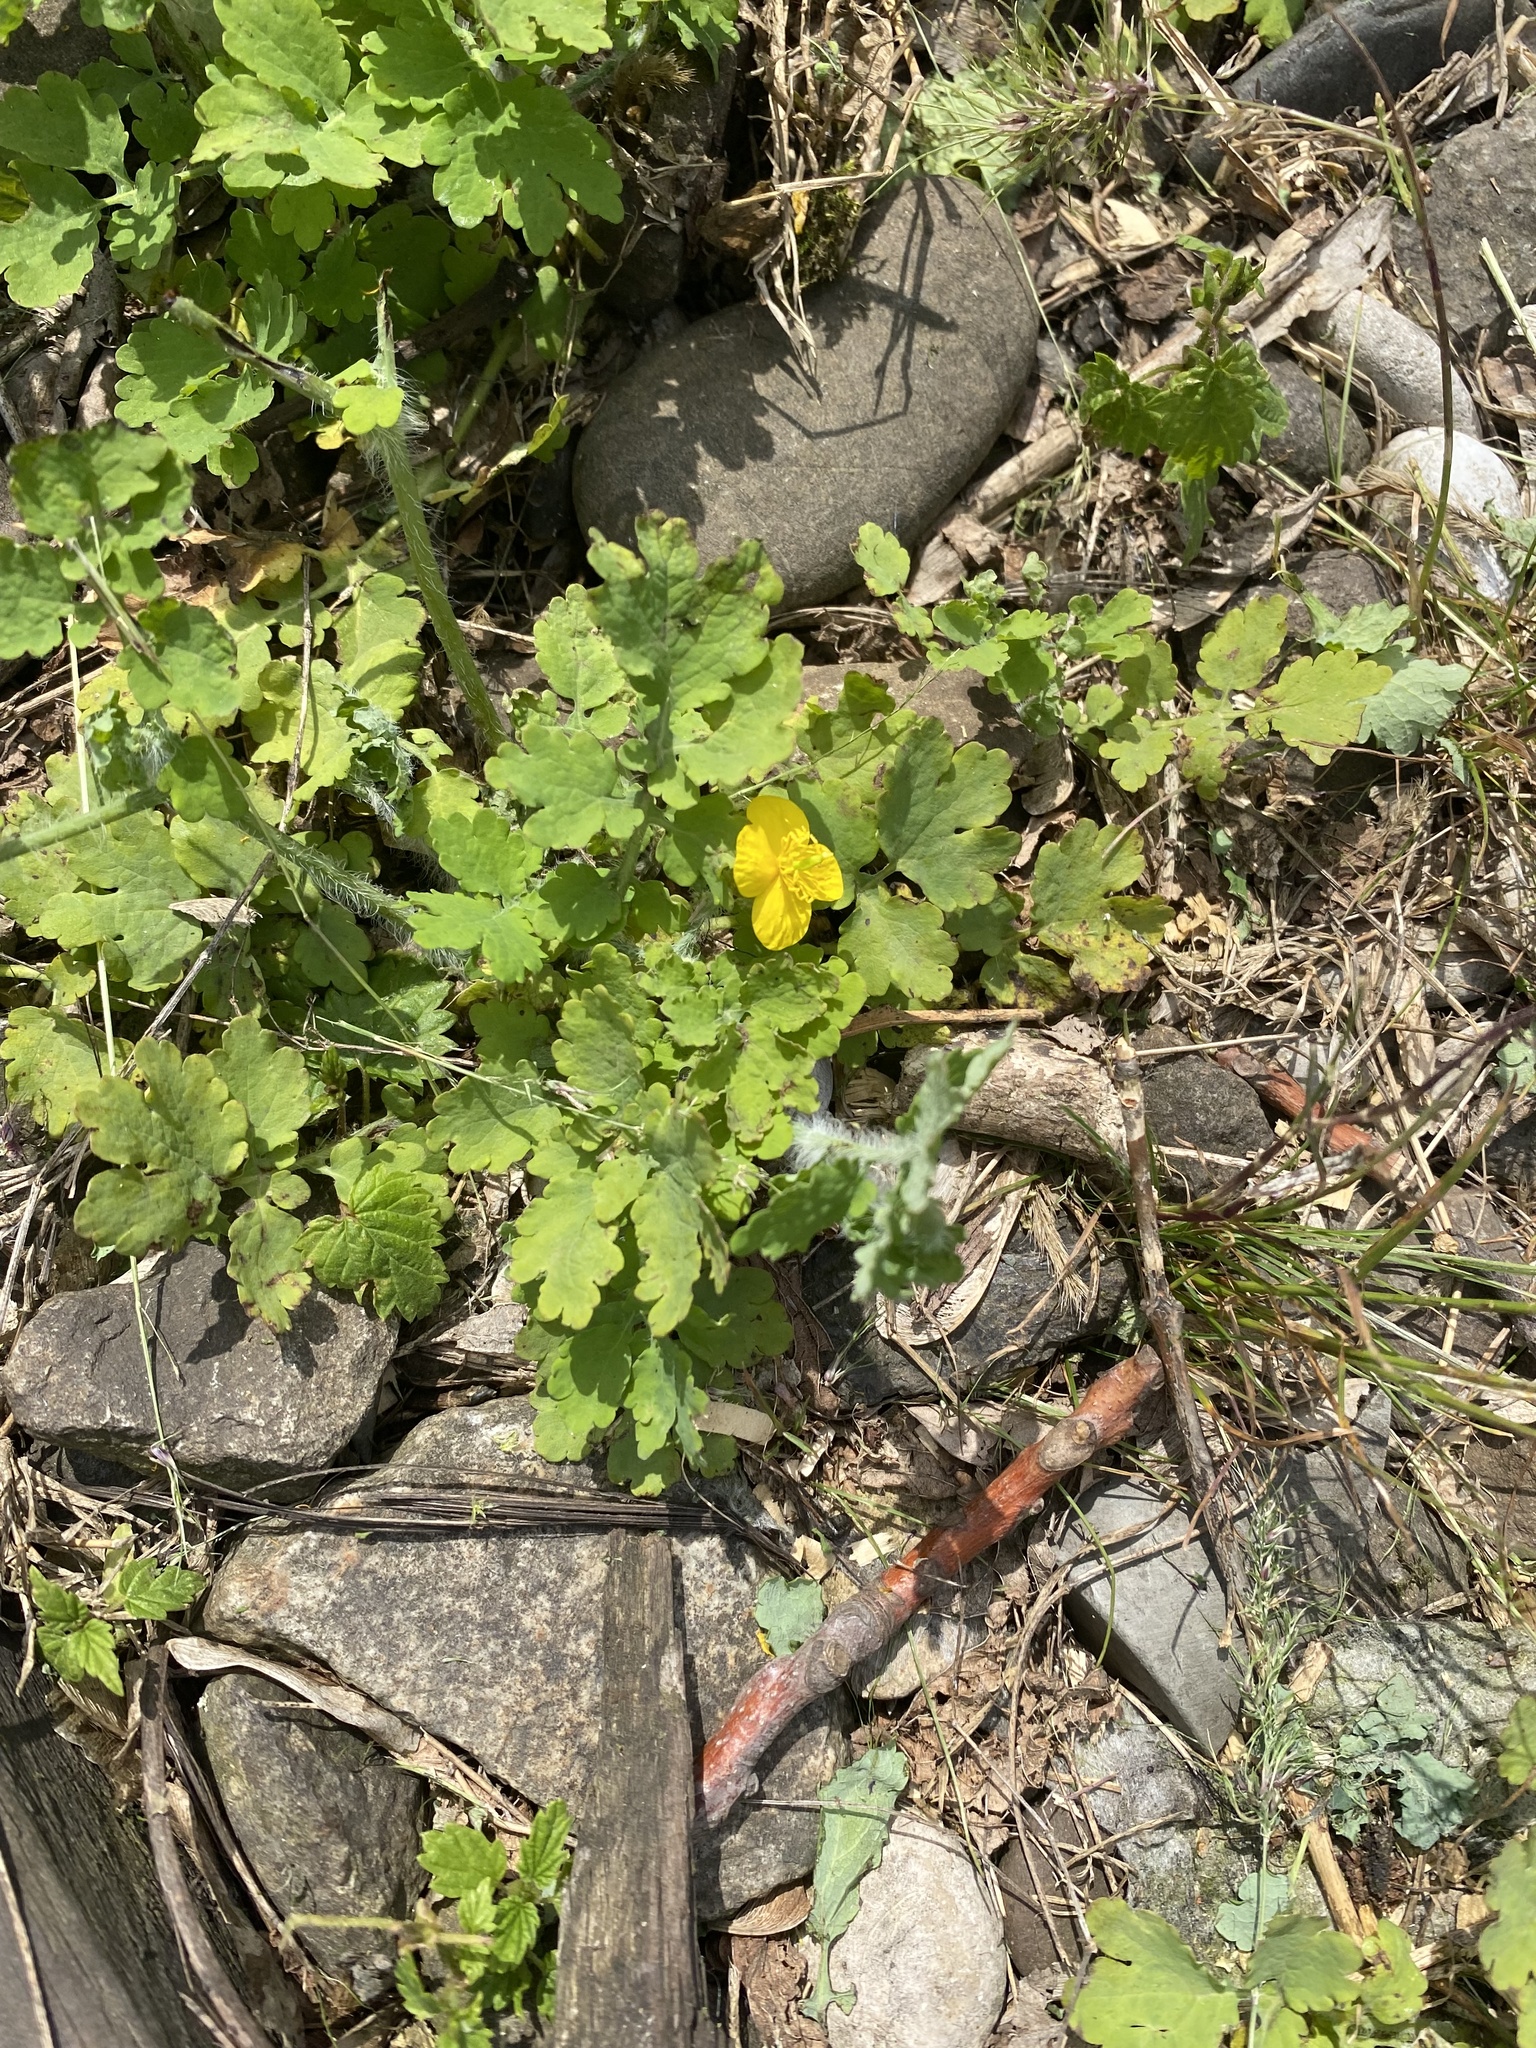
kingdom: Plantae
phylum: Tracheophyta
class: Magnoliopsida
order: Ranunculales
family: Papaveraceae
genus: Chelidonium
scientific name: Chelidonium majus
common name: Greater celandine
